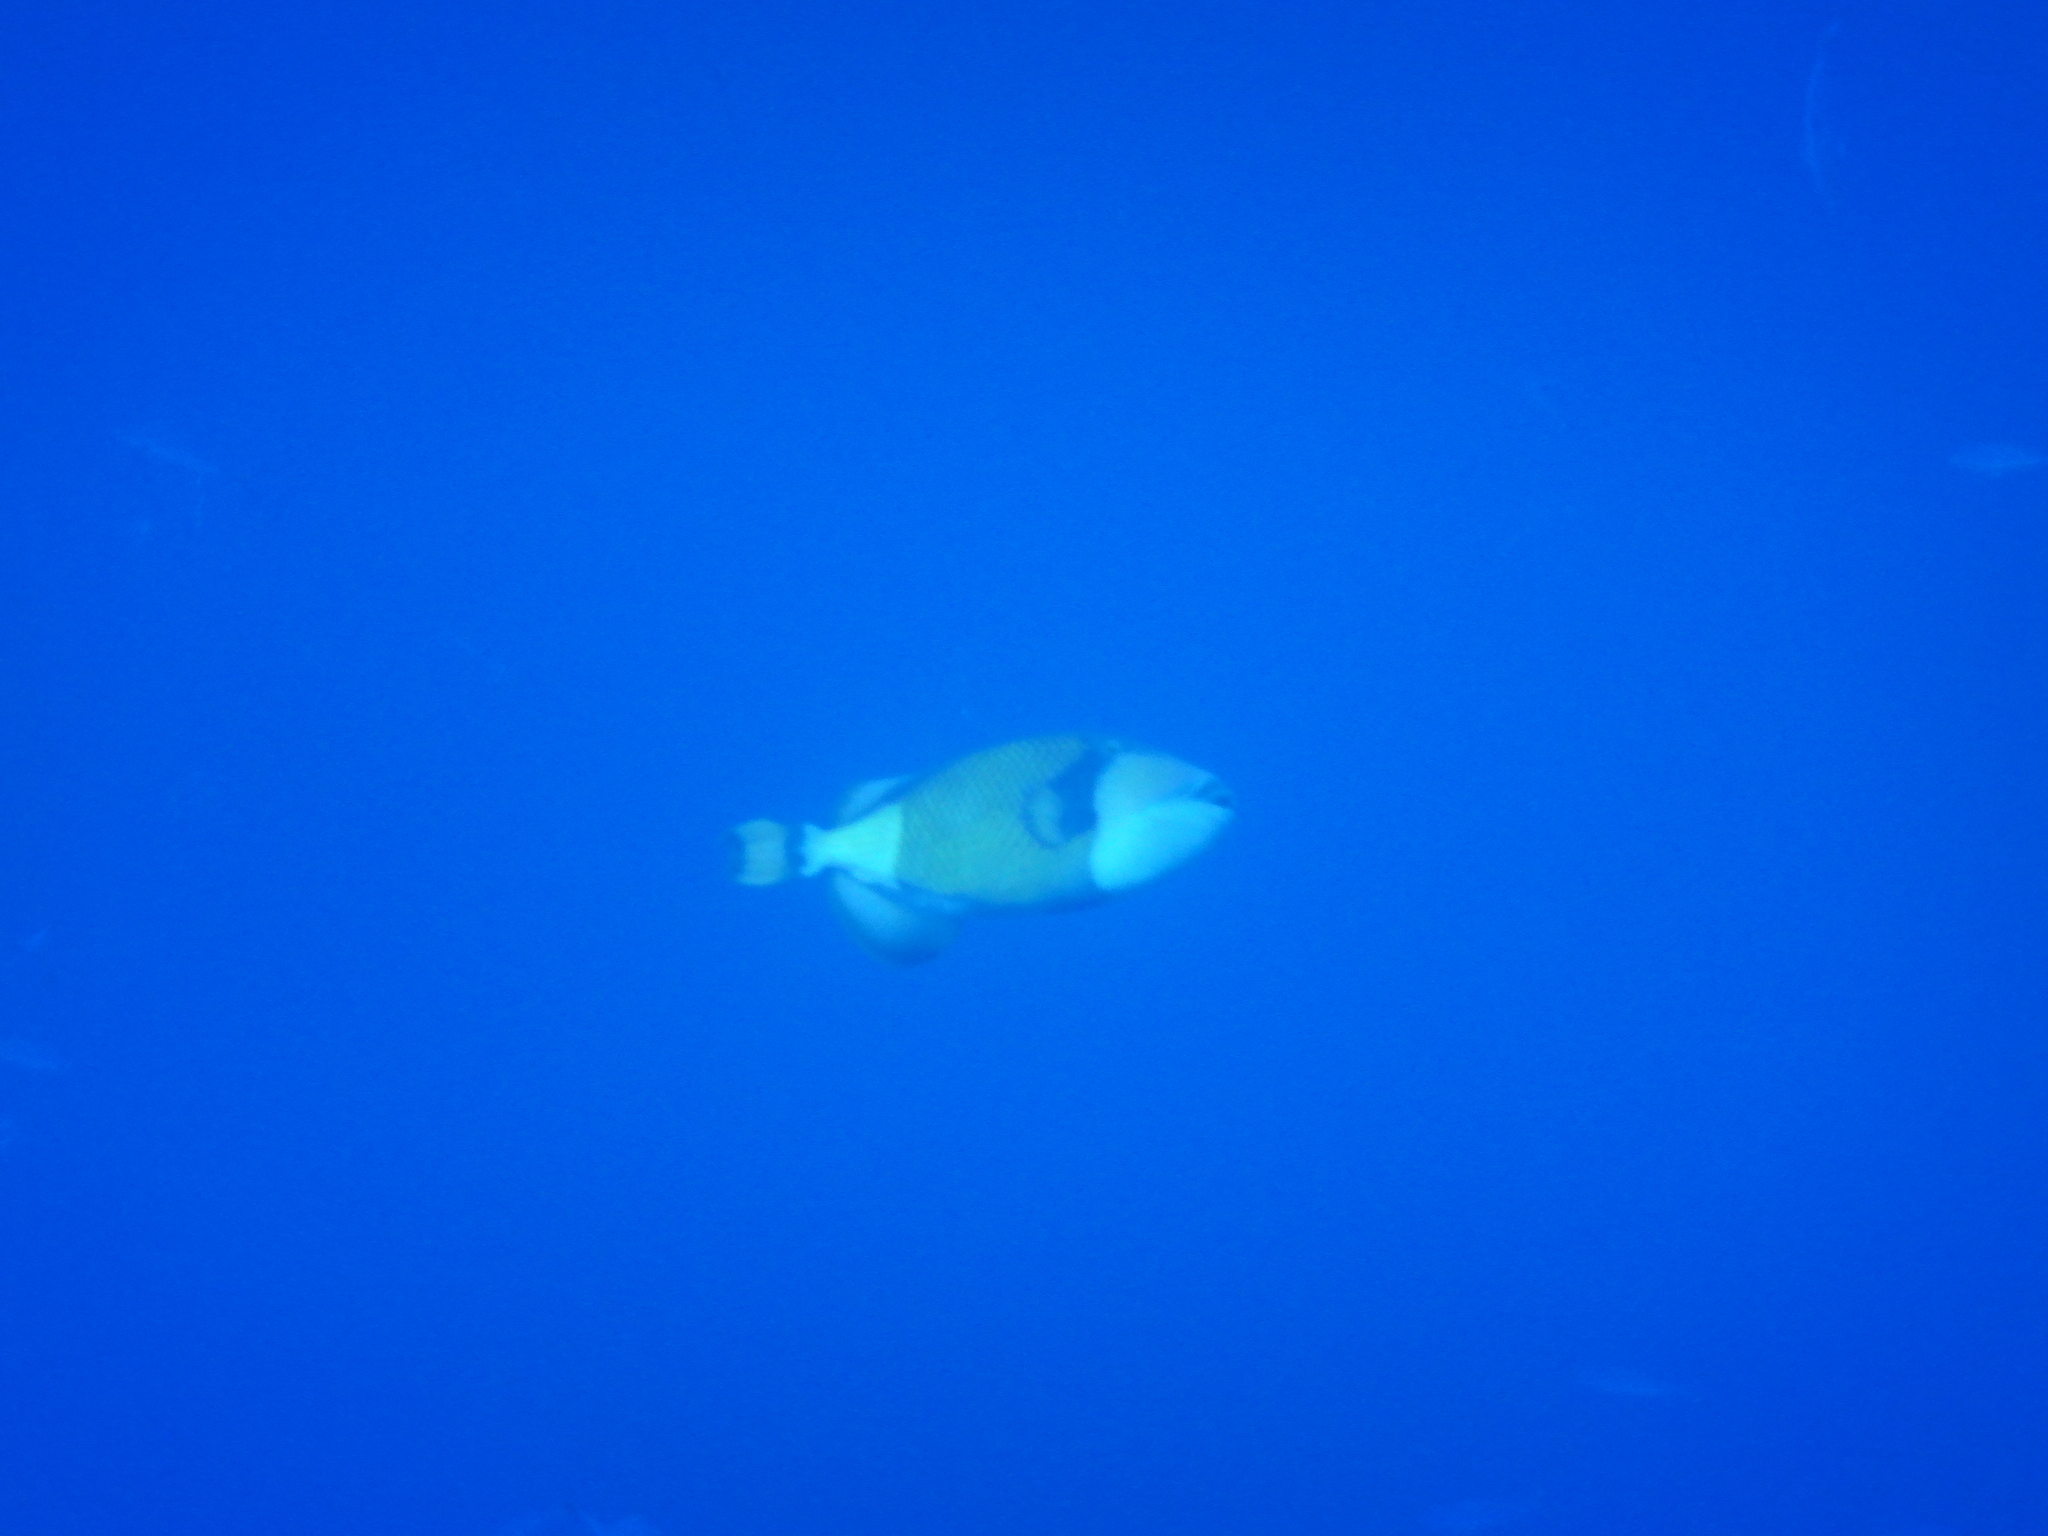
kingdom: Animalia
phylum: Chordata
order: Tetraodontiformes
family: Balistidae
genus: Balistoides
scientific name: Balistoides viridescens
